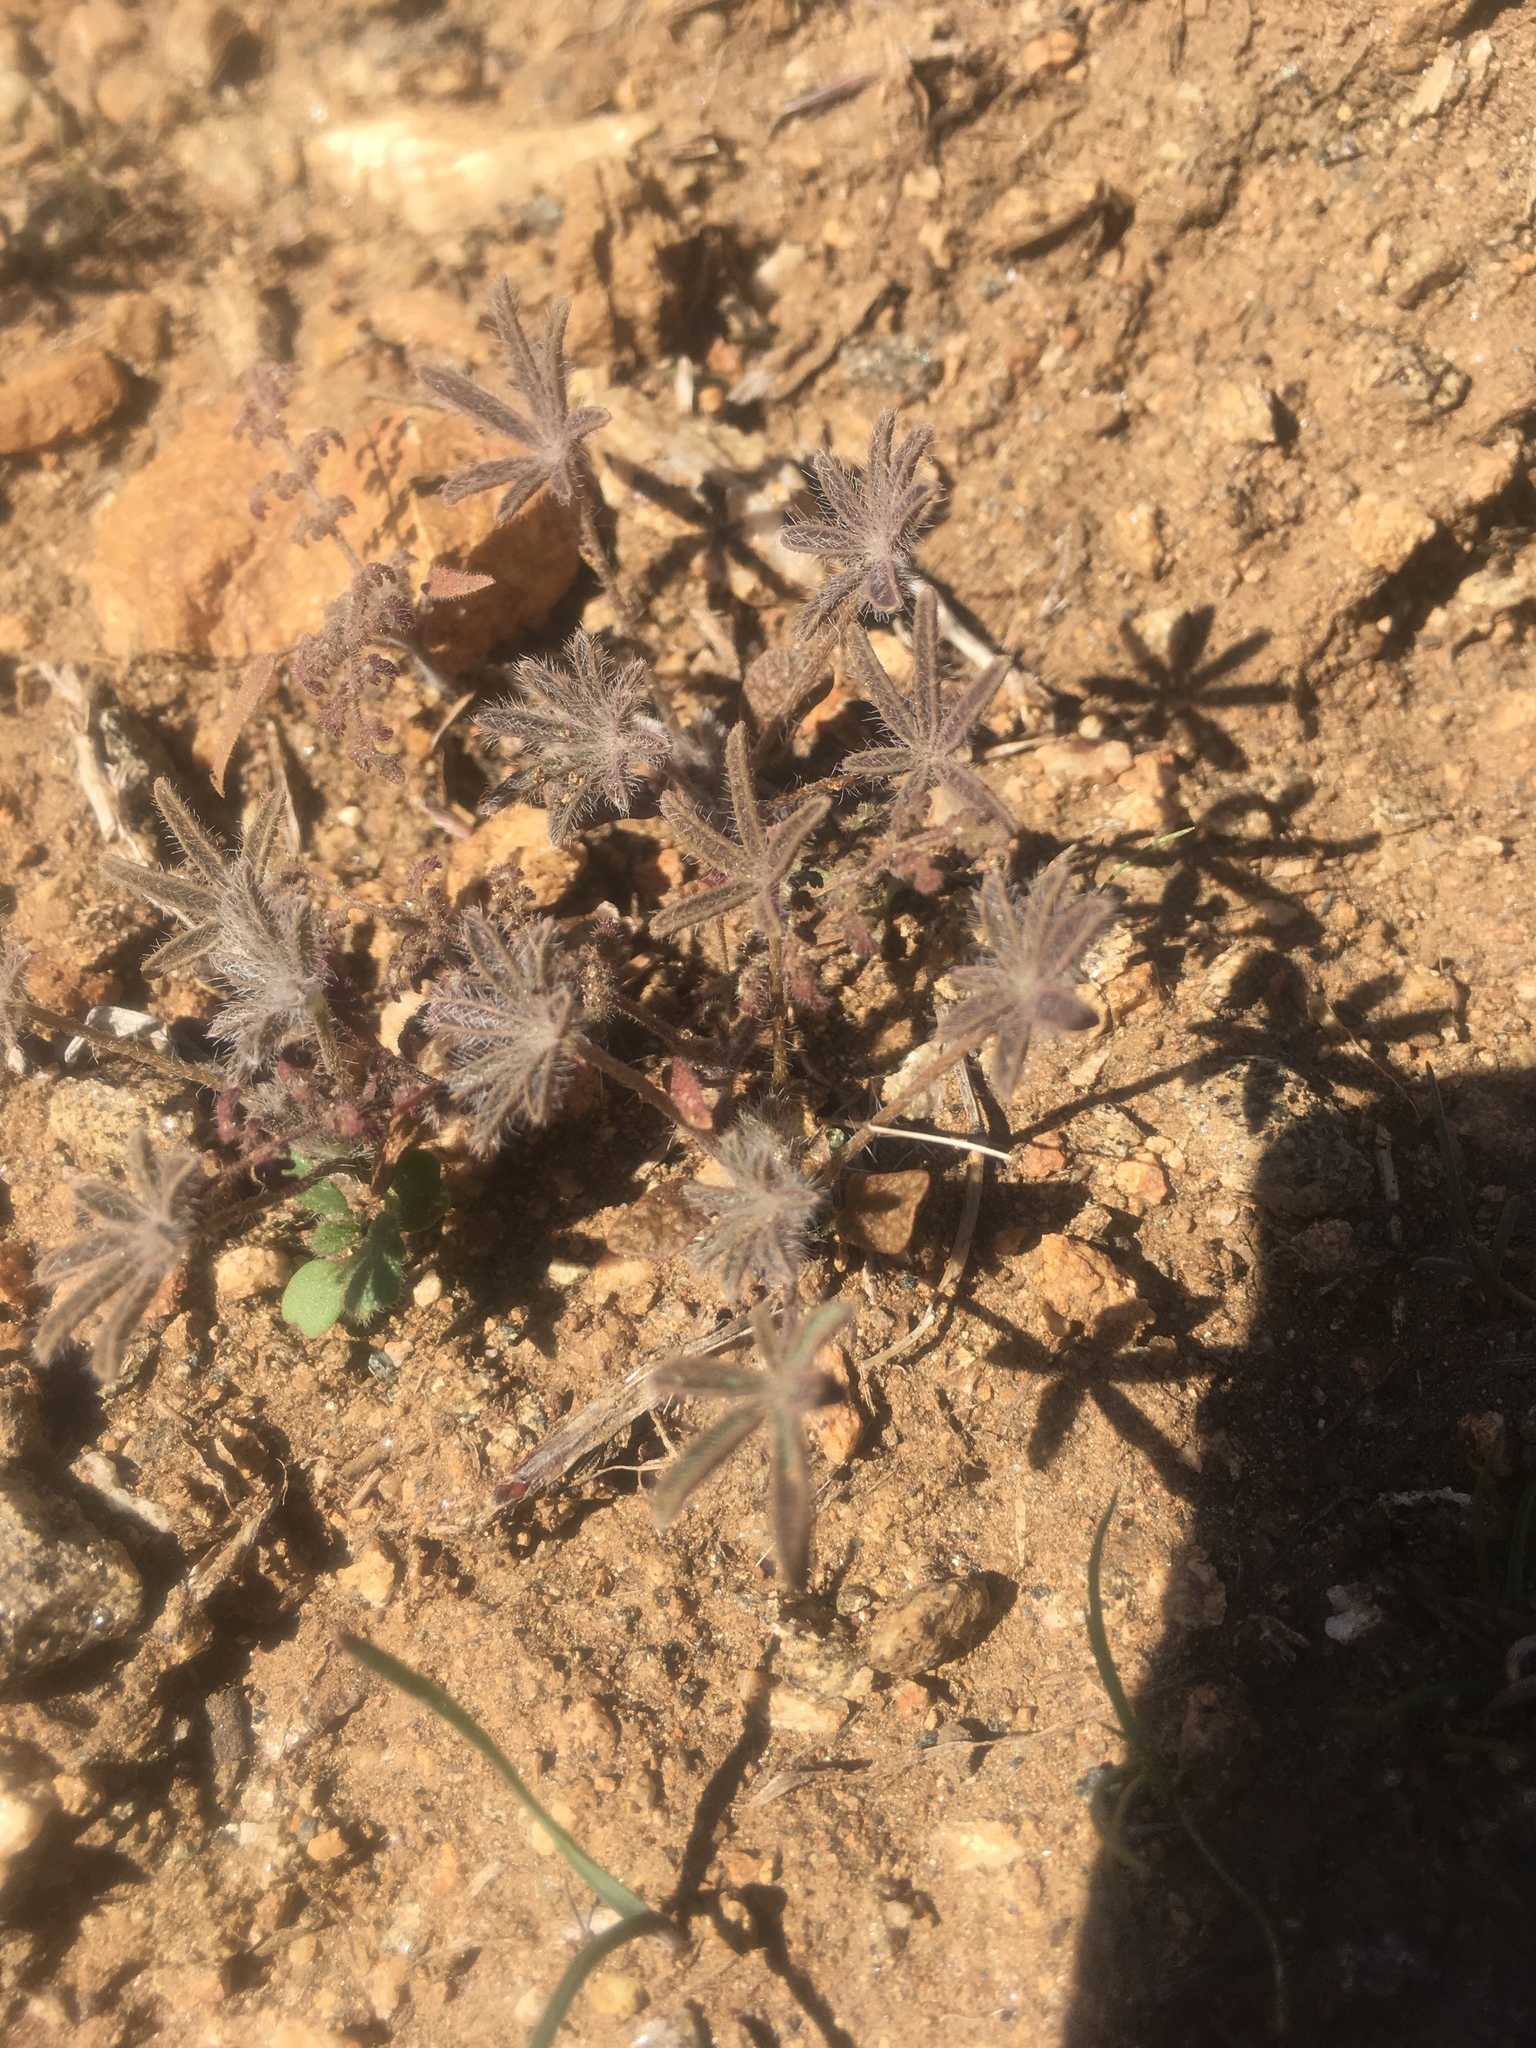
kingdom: Plantae
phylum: Tracheophyta
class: Magnoliopsida
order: Fabales
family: Fabaceae
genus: Lupinus
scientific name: Lupinus bicolor
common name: Miniature lupine
